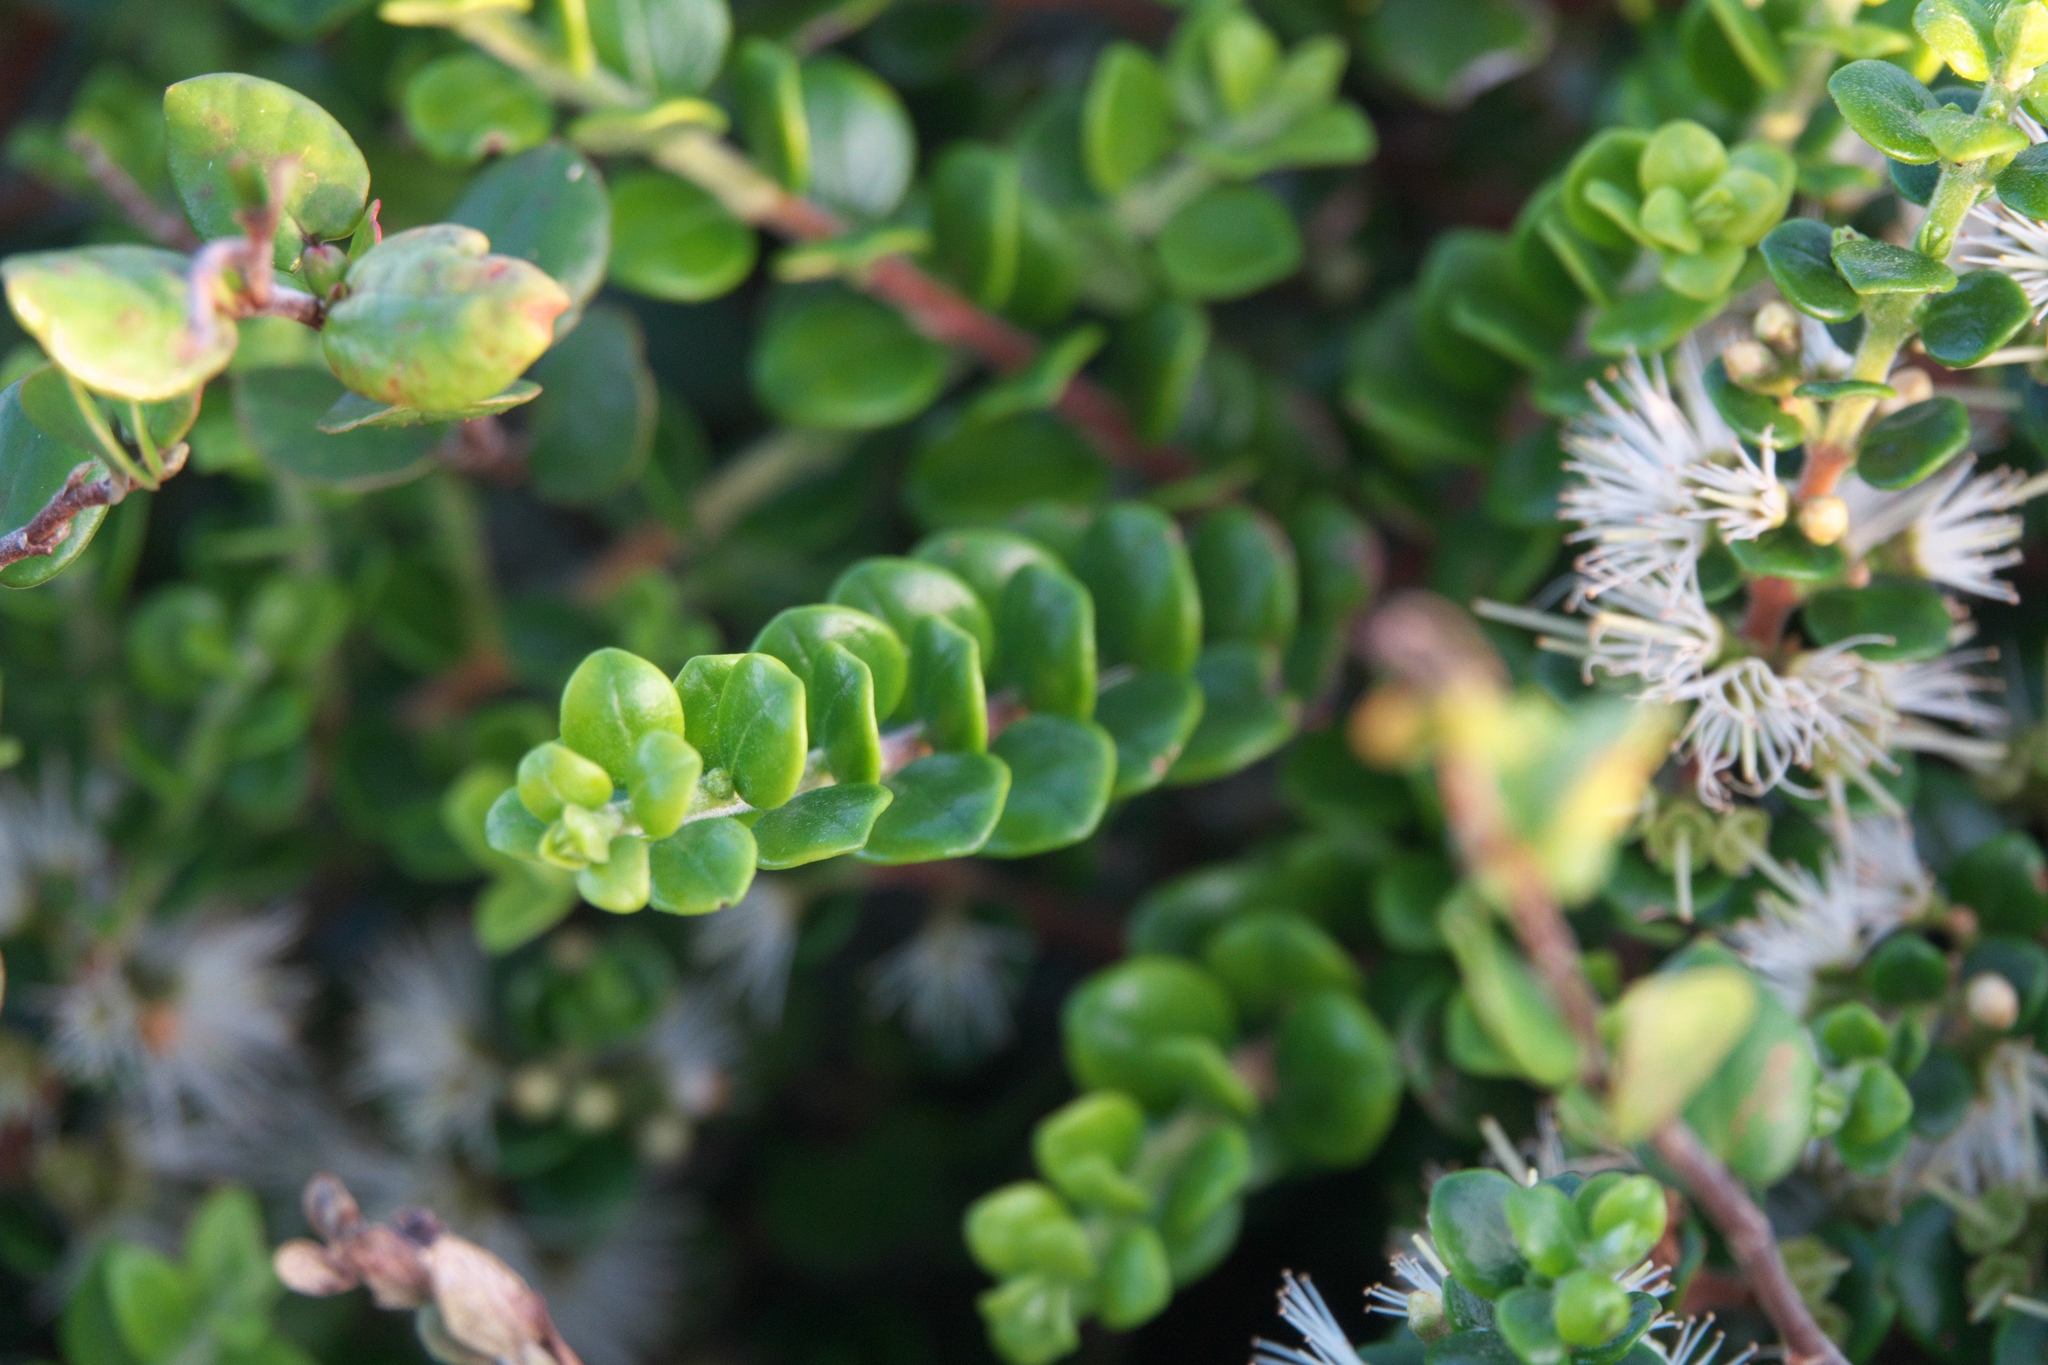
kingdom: Plantae
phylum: Tracheophyta
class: Magnoliopsida
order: Myrtales
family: Myrtaceae
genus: Metrosideros
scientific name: Metrosideros perforata
